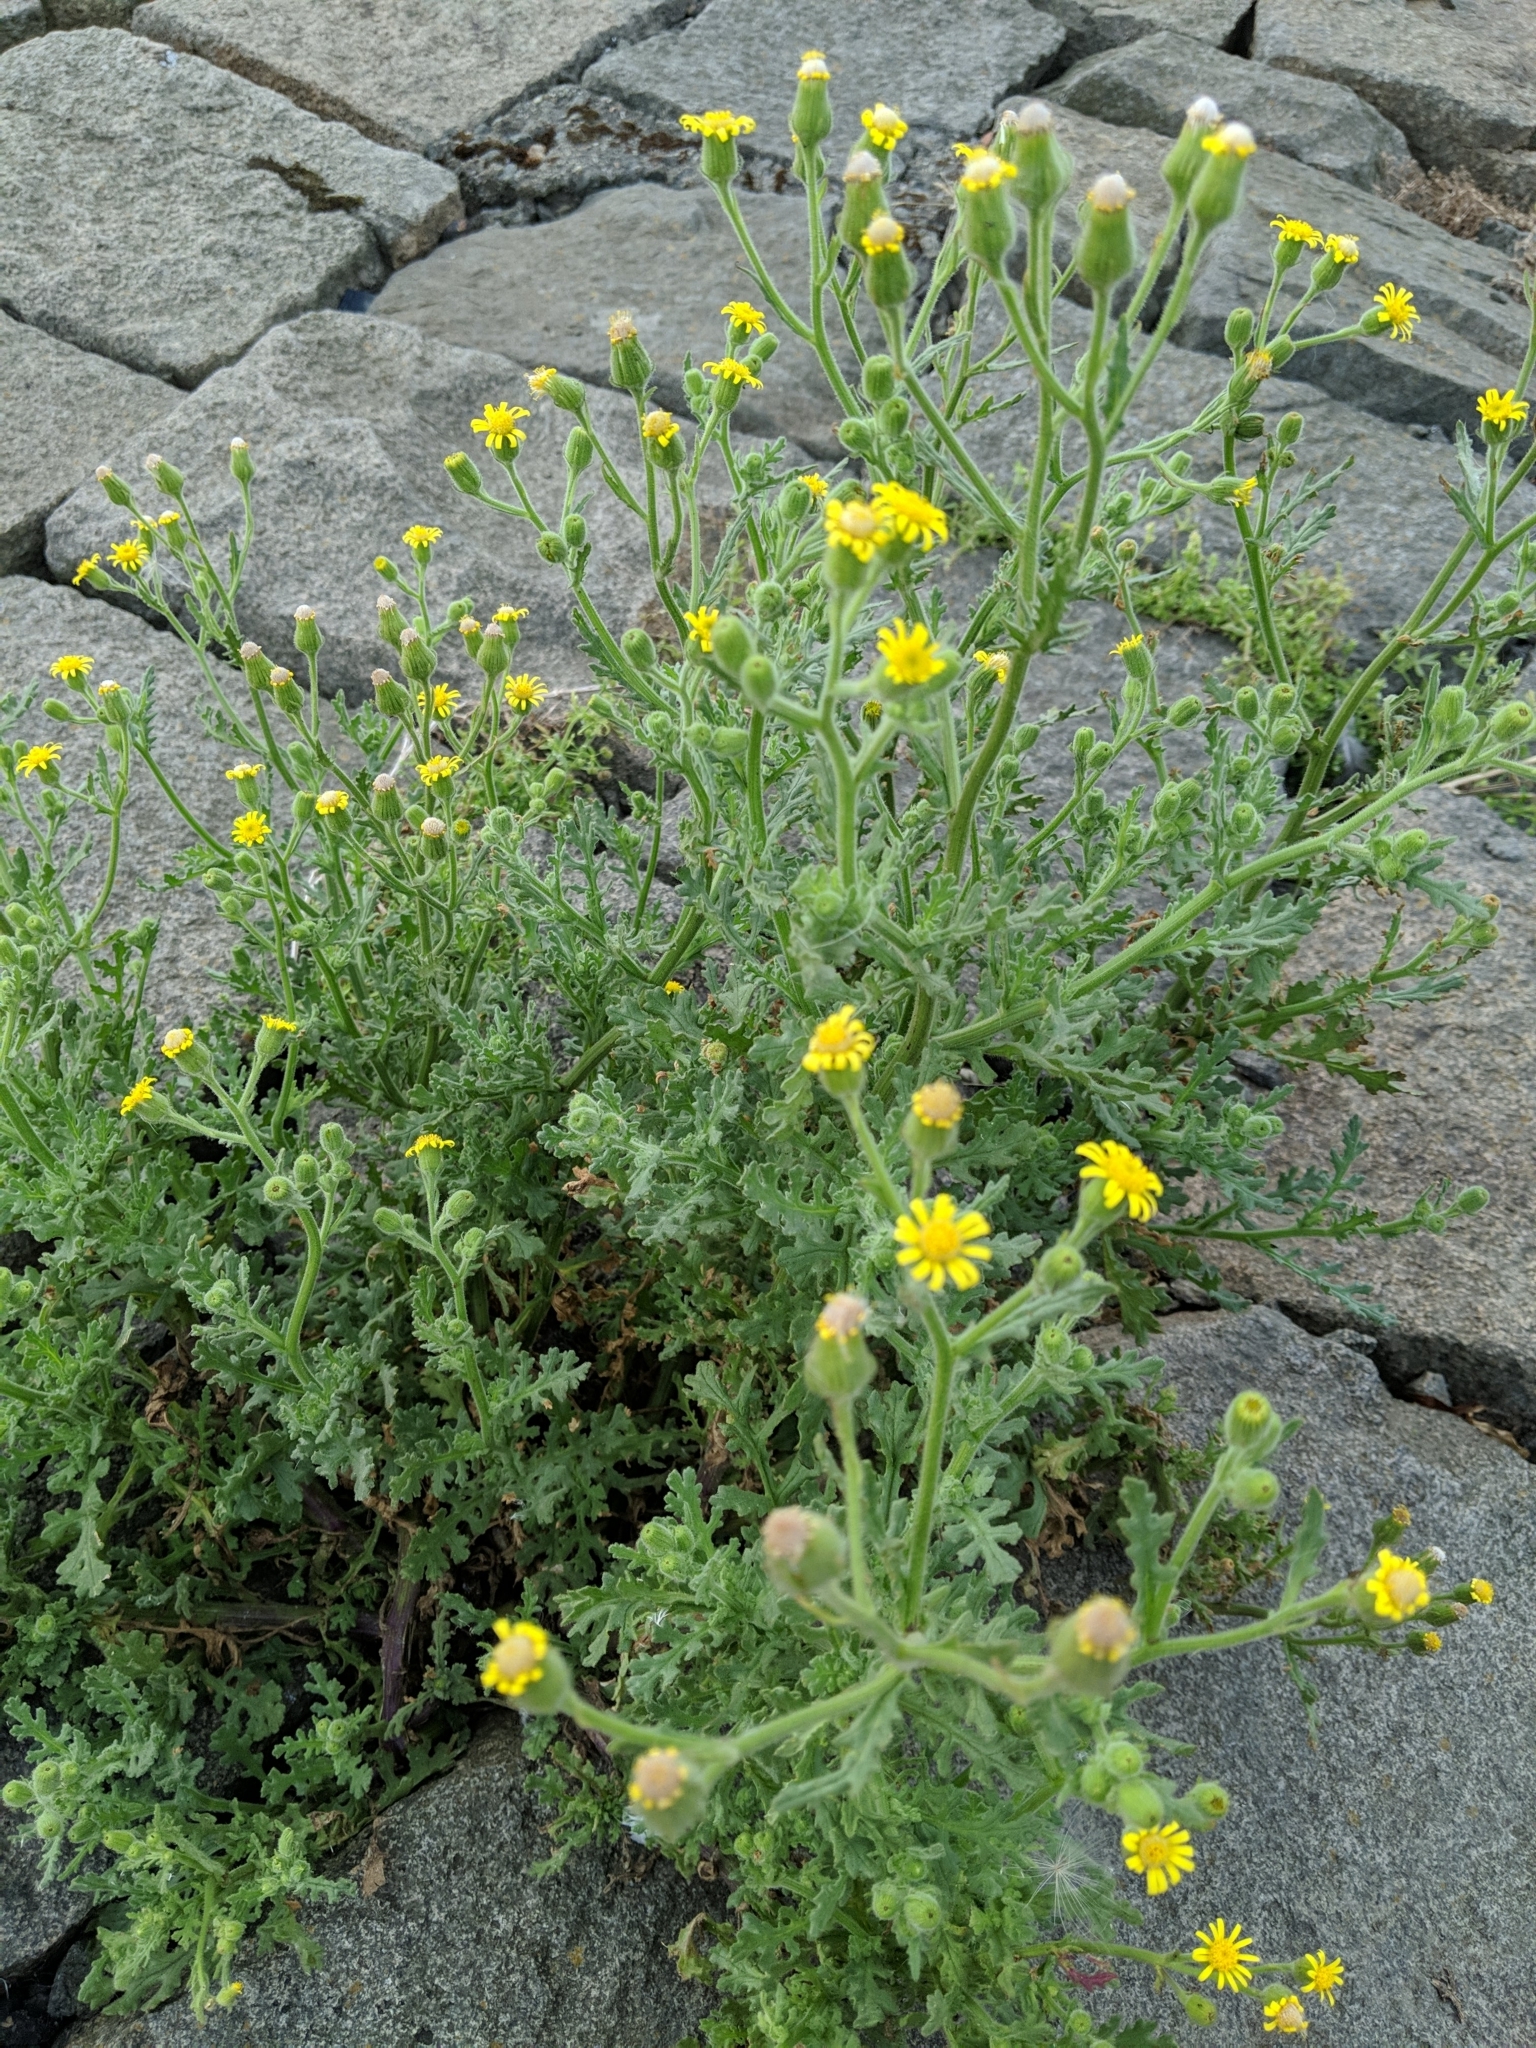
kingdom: Plantae
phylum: Tracheophyta
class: Magnoliopsida
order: Asterales
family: Asteraceae
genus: Senecio
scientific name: Senecio viscosus
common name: Sticky groundsel
